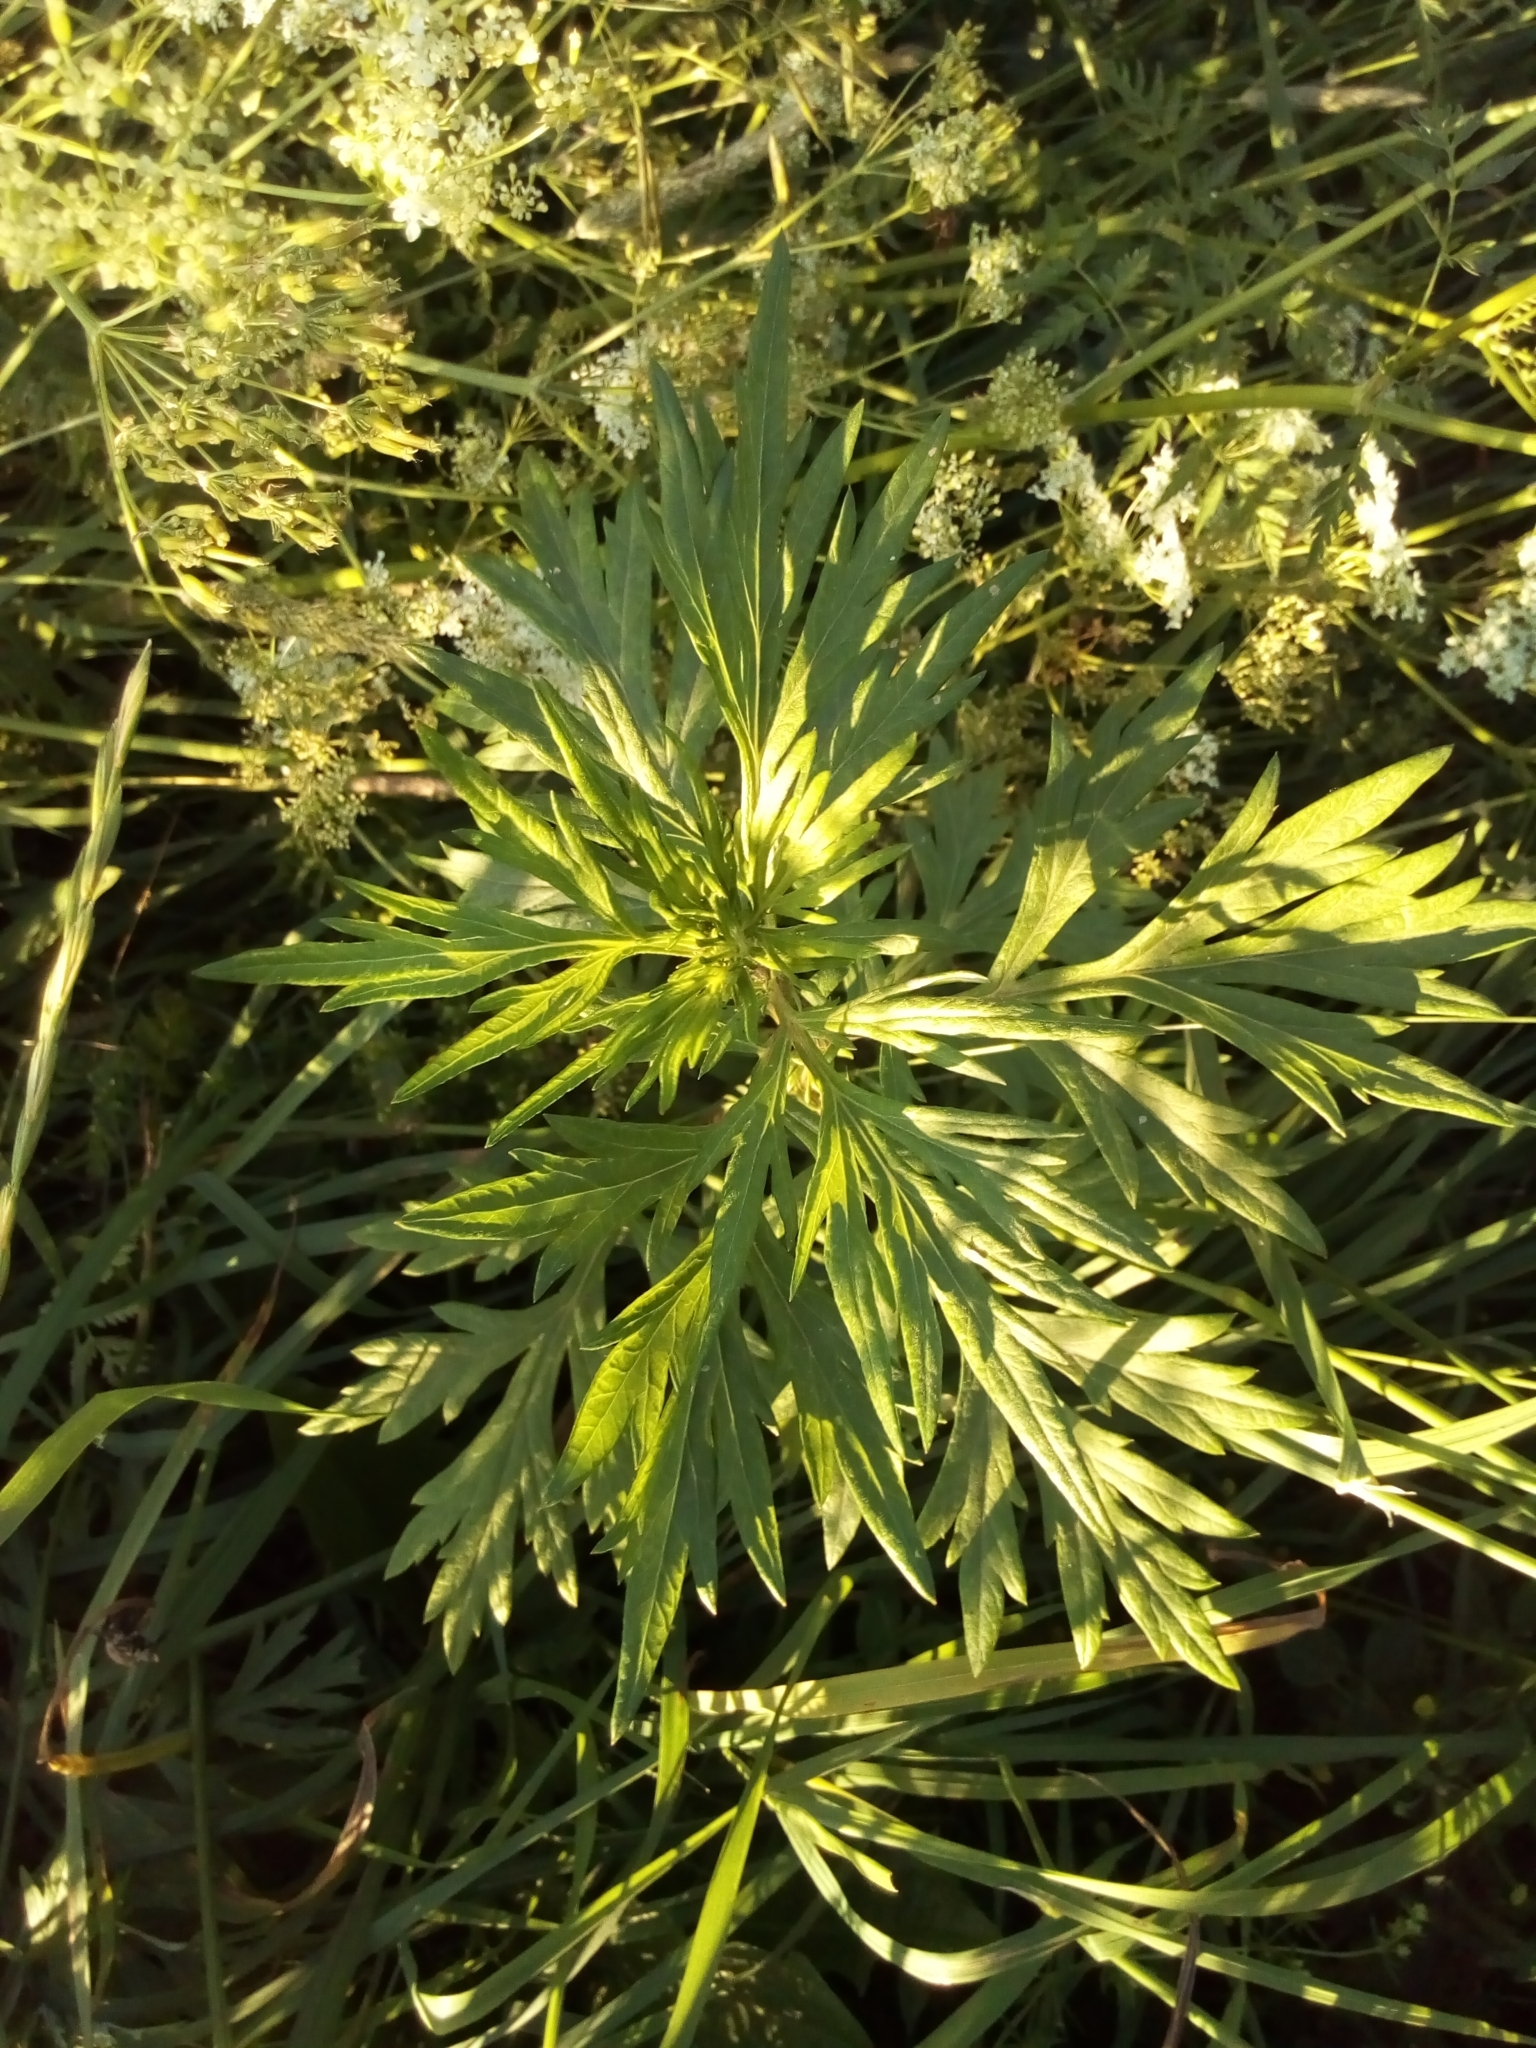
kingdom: Plantae
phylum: Tracheophyta
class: Magnoliopsida
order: Asterales
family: Asteraceae
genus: Artemisia
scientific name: Artemisia vulgaris
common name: Mugwort
